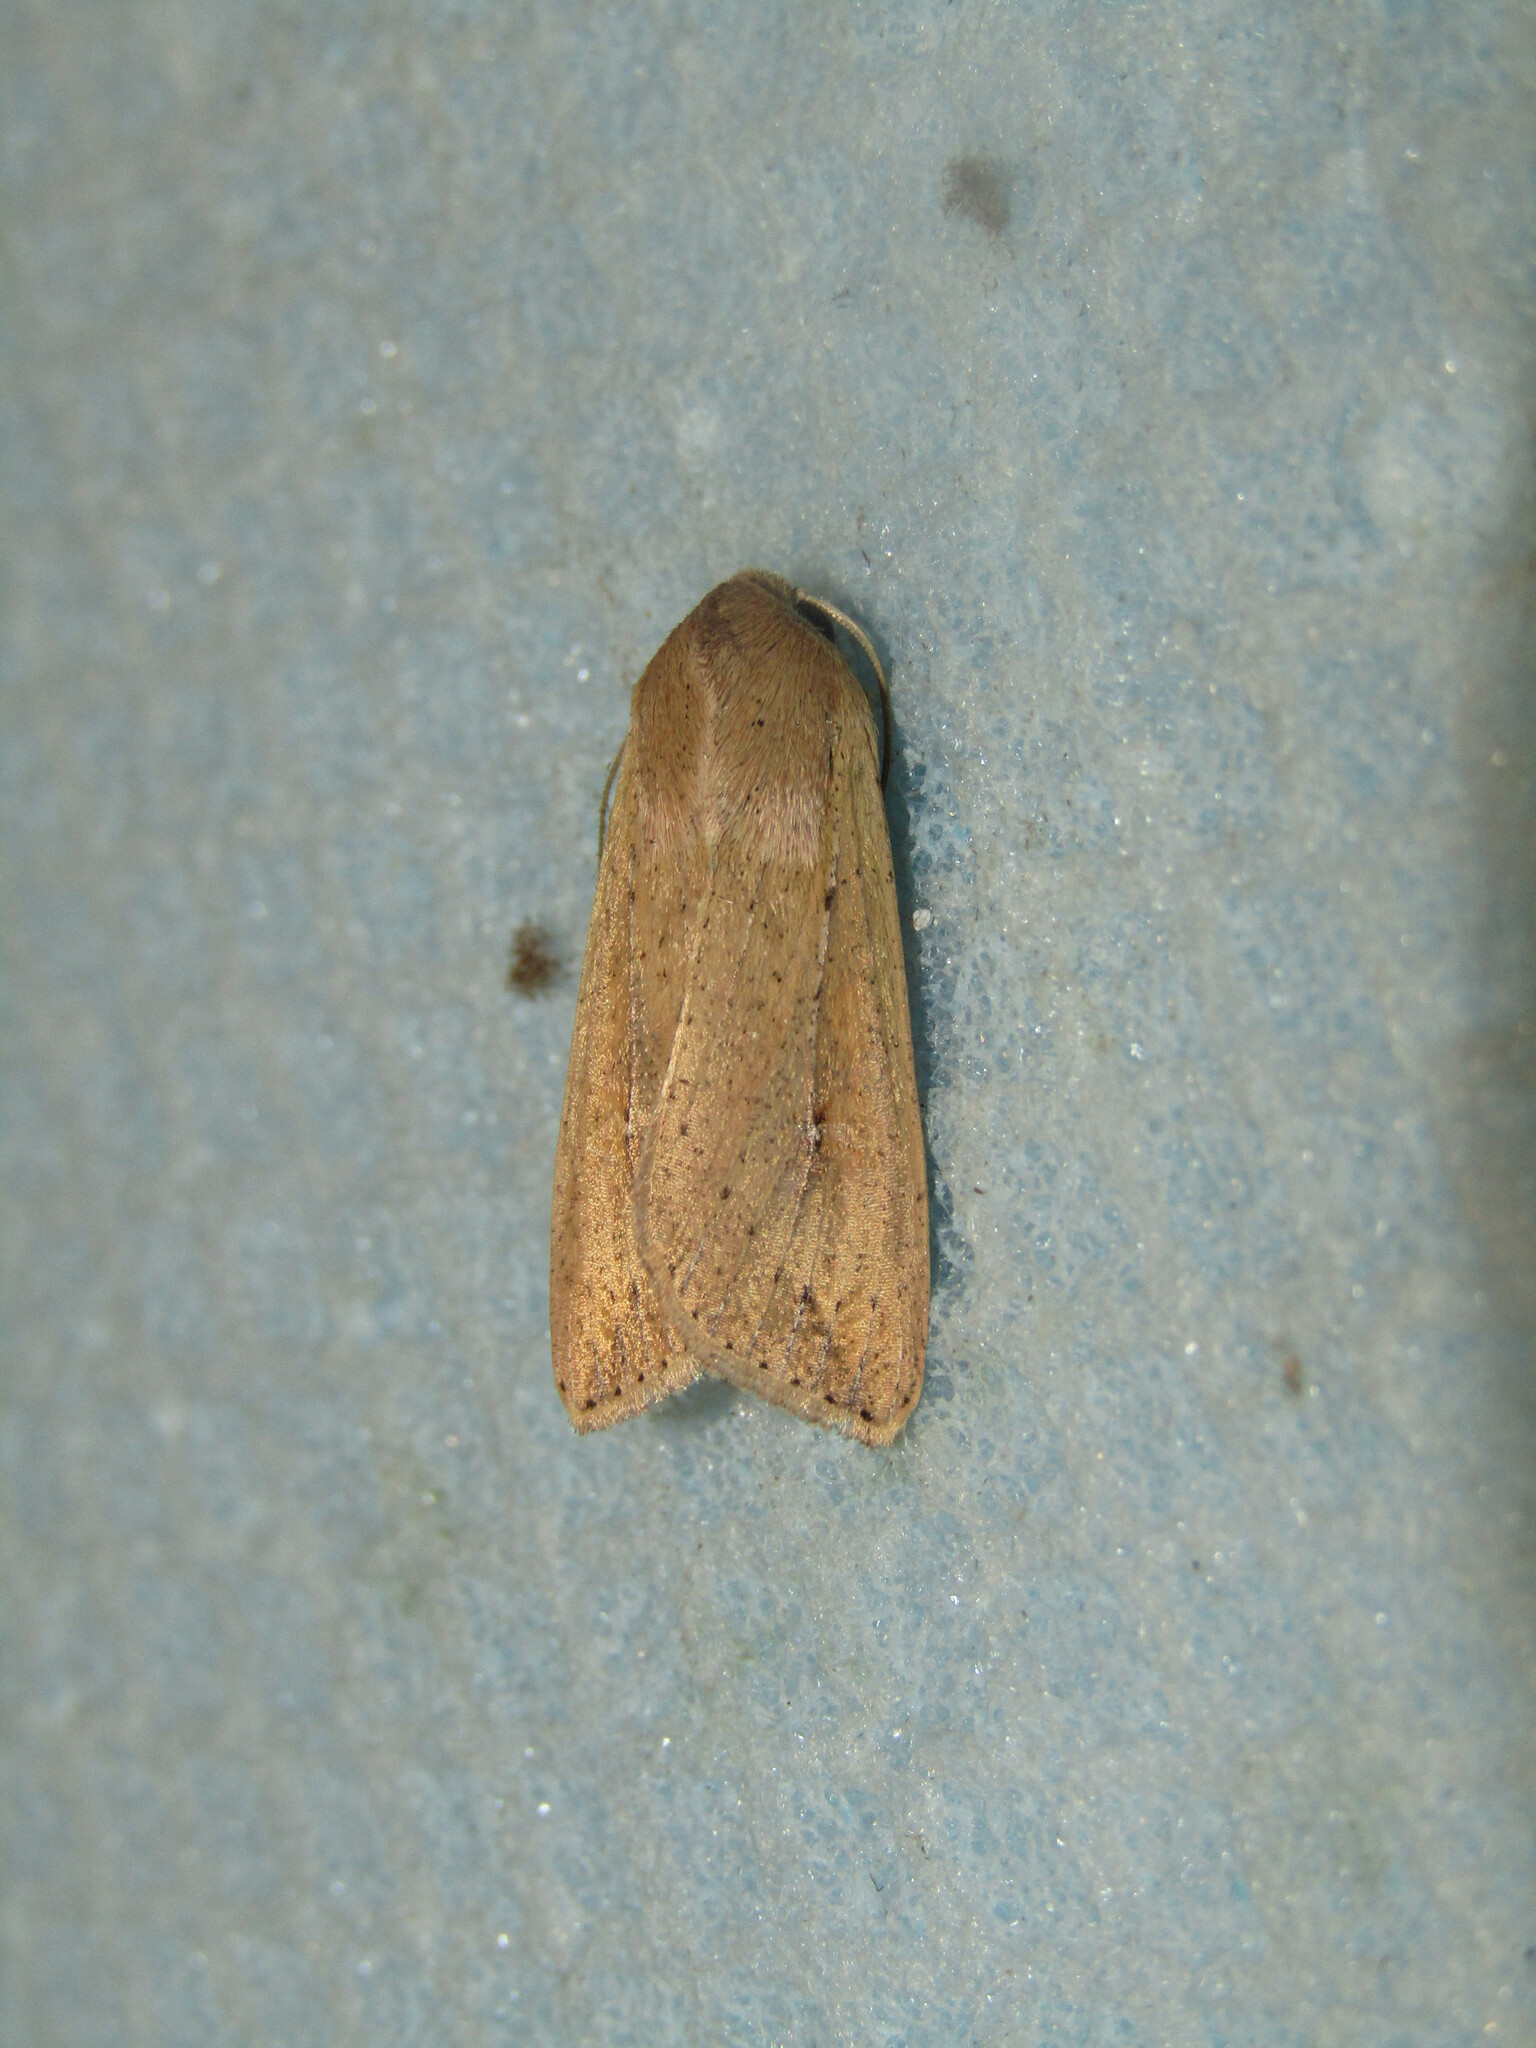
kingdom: Animalia
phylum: Arthropoda
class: Insecta
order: Lepidoptera
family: Noctuidae
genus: Mythimna
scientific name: Mythimna unipuncta
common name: White-speck
